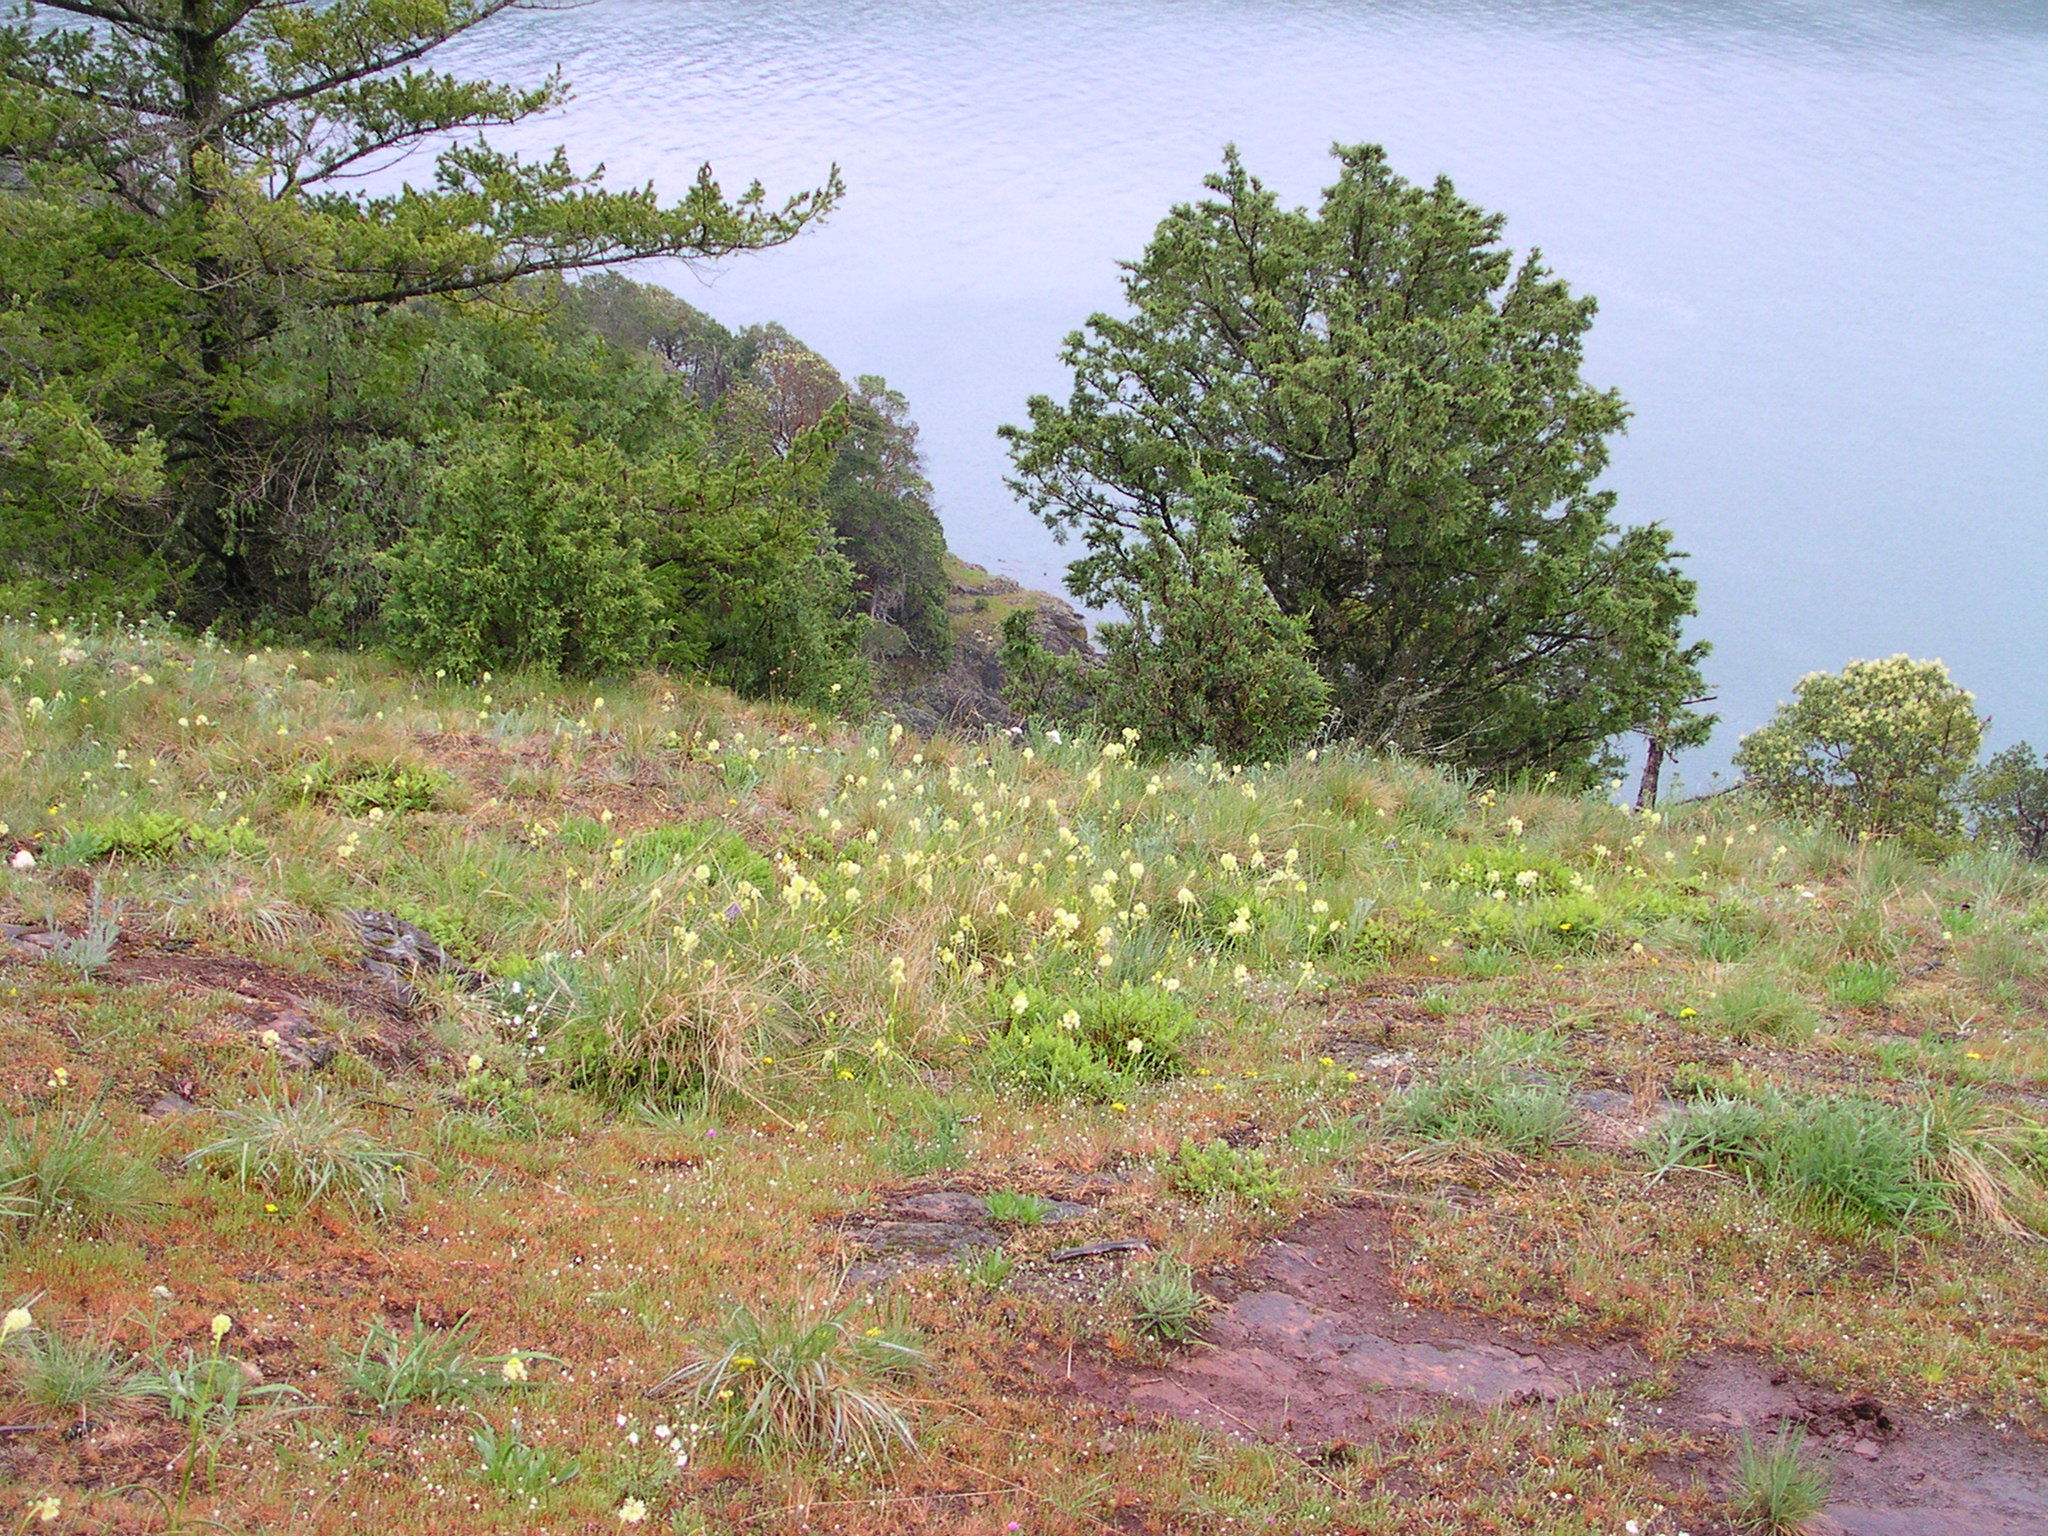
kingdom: Plantae
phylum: Tracheophyta
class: Liliopsida
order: Liliales
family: Melanthiaceae
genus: Toxicoscordion
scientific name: Toxicoscordion venenosum
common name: Meadow death camas
